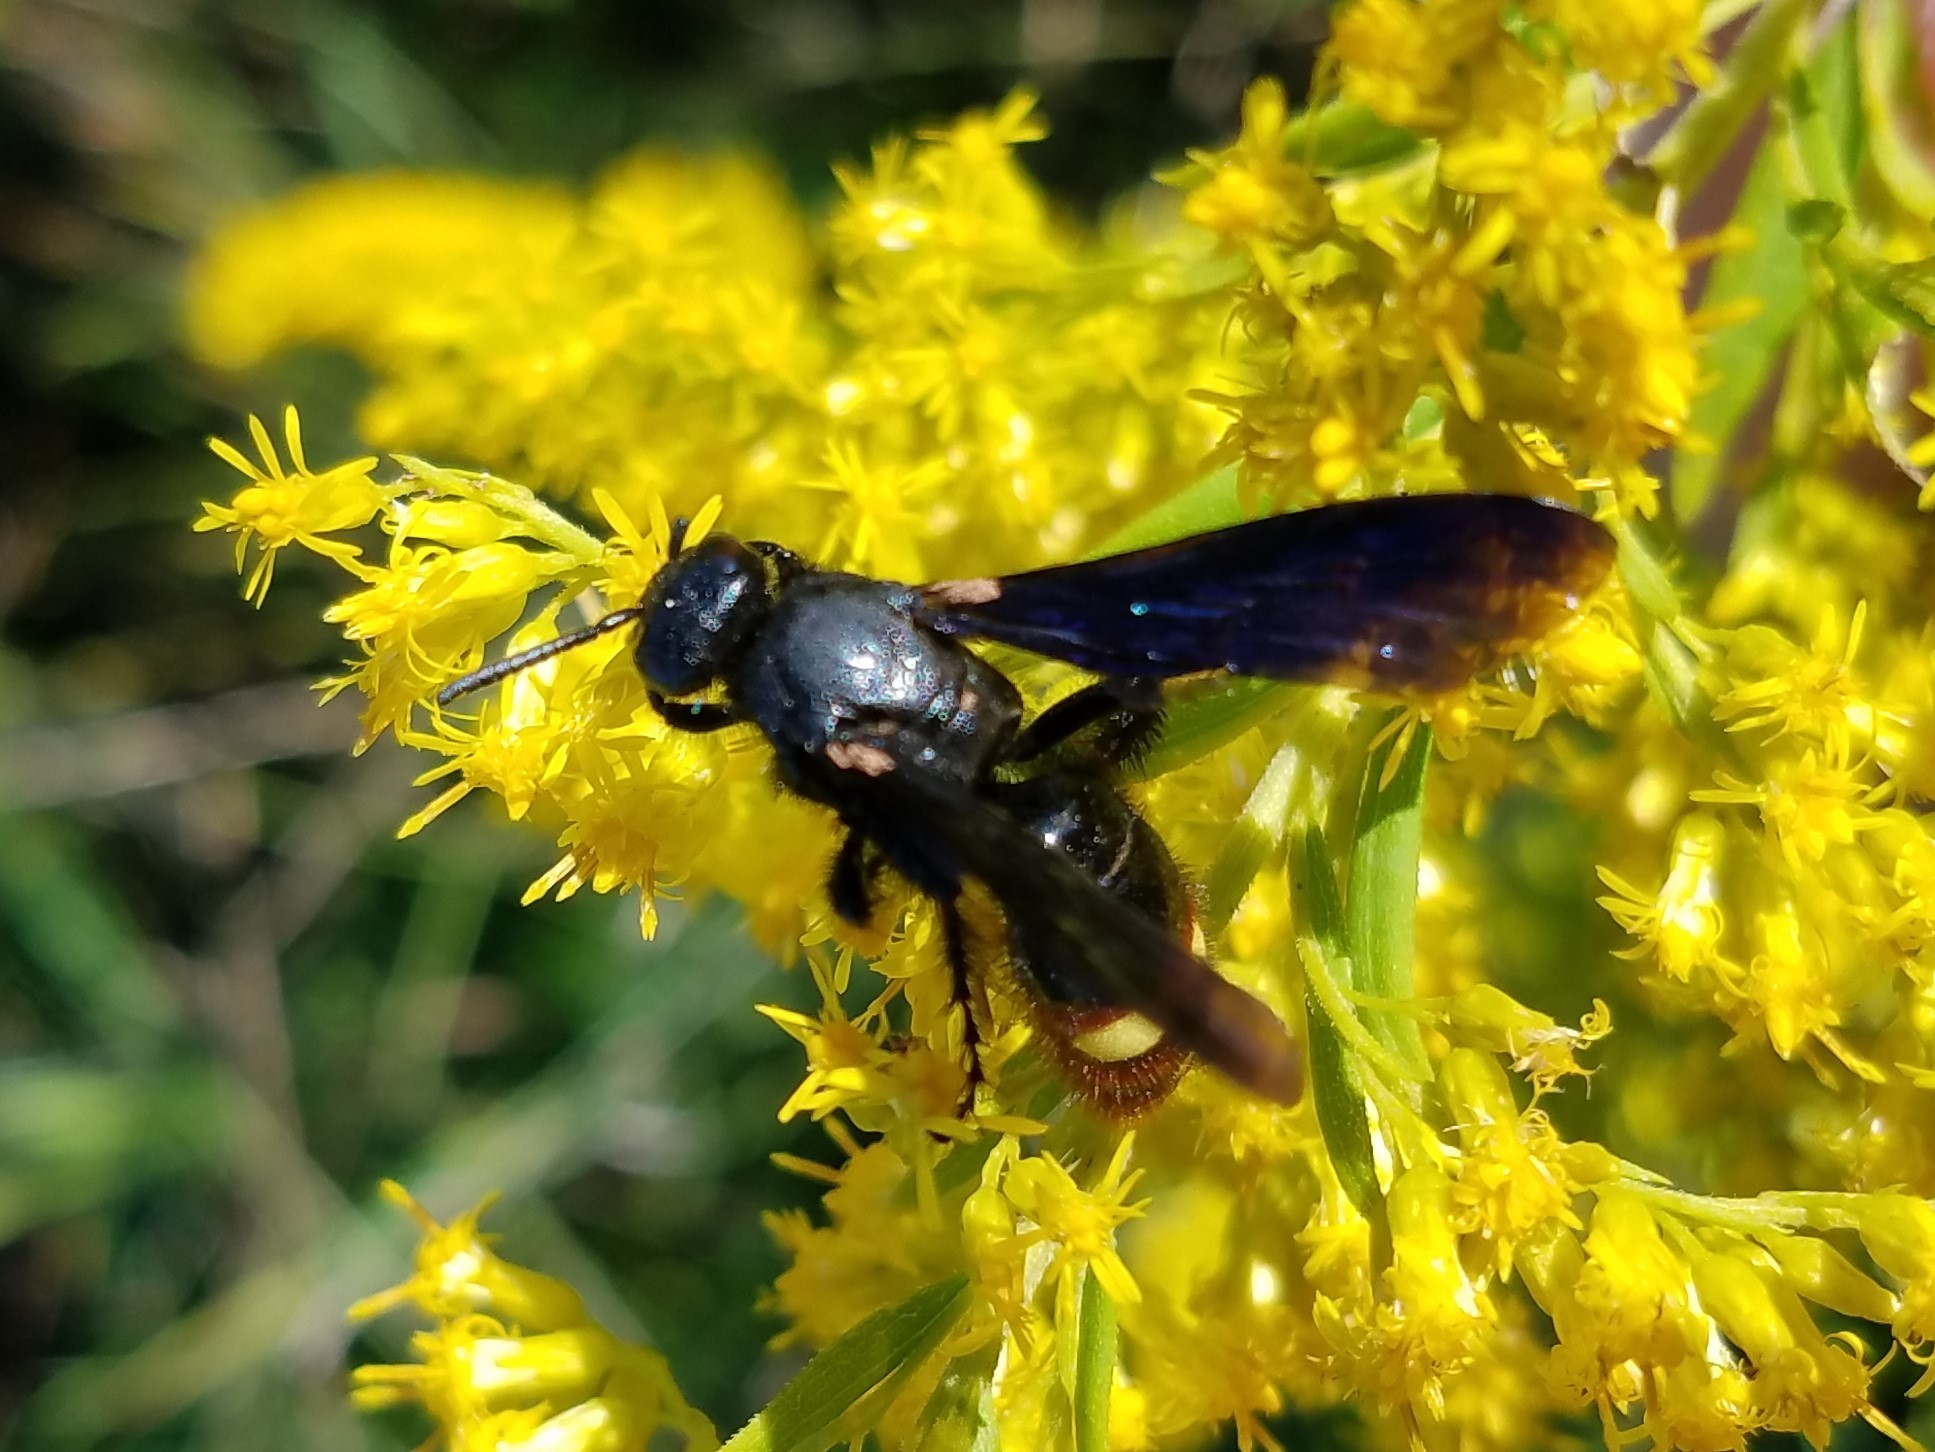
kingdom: Animalia
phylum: Arthropoda
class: Insecta
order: Hymenoptera
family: Scoliidae
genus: Scolia
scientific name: Scolia dubia
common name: Blue-winged scoliid wasp
